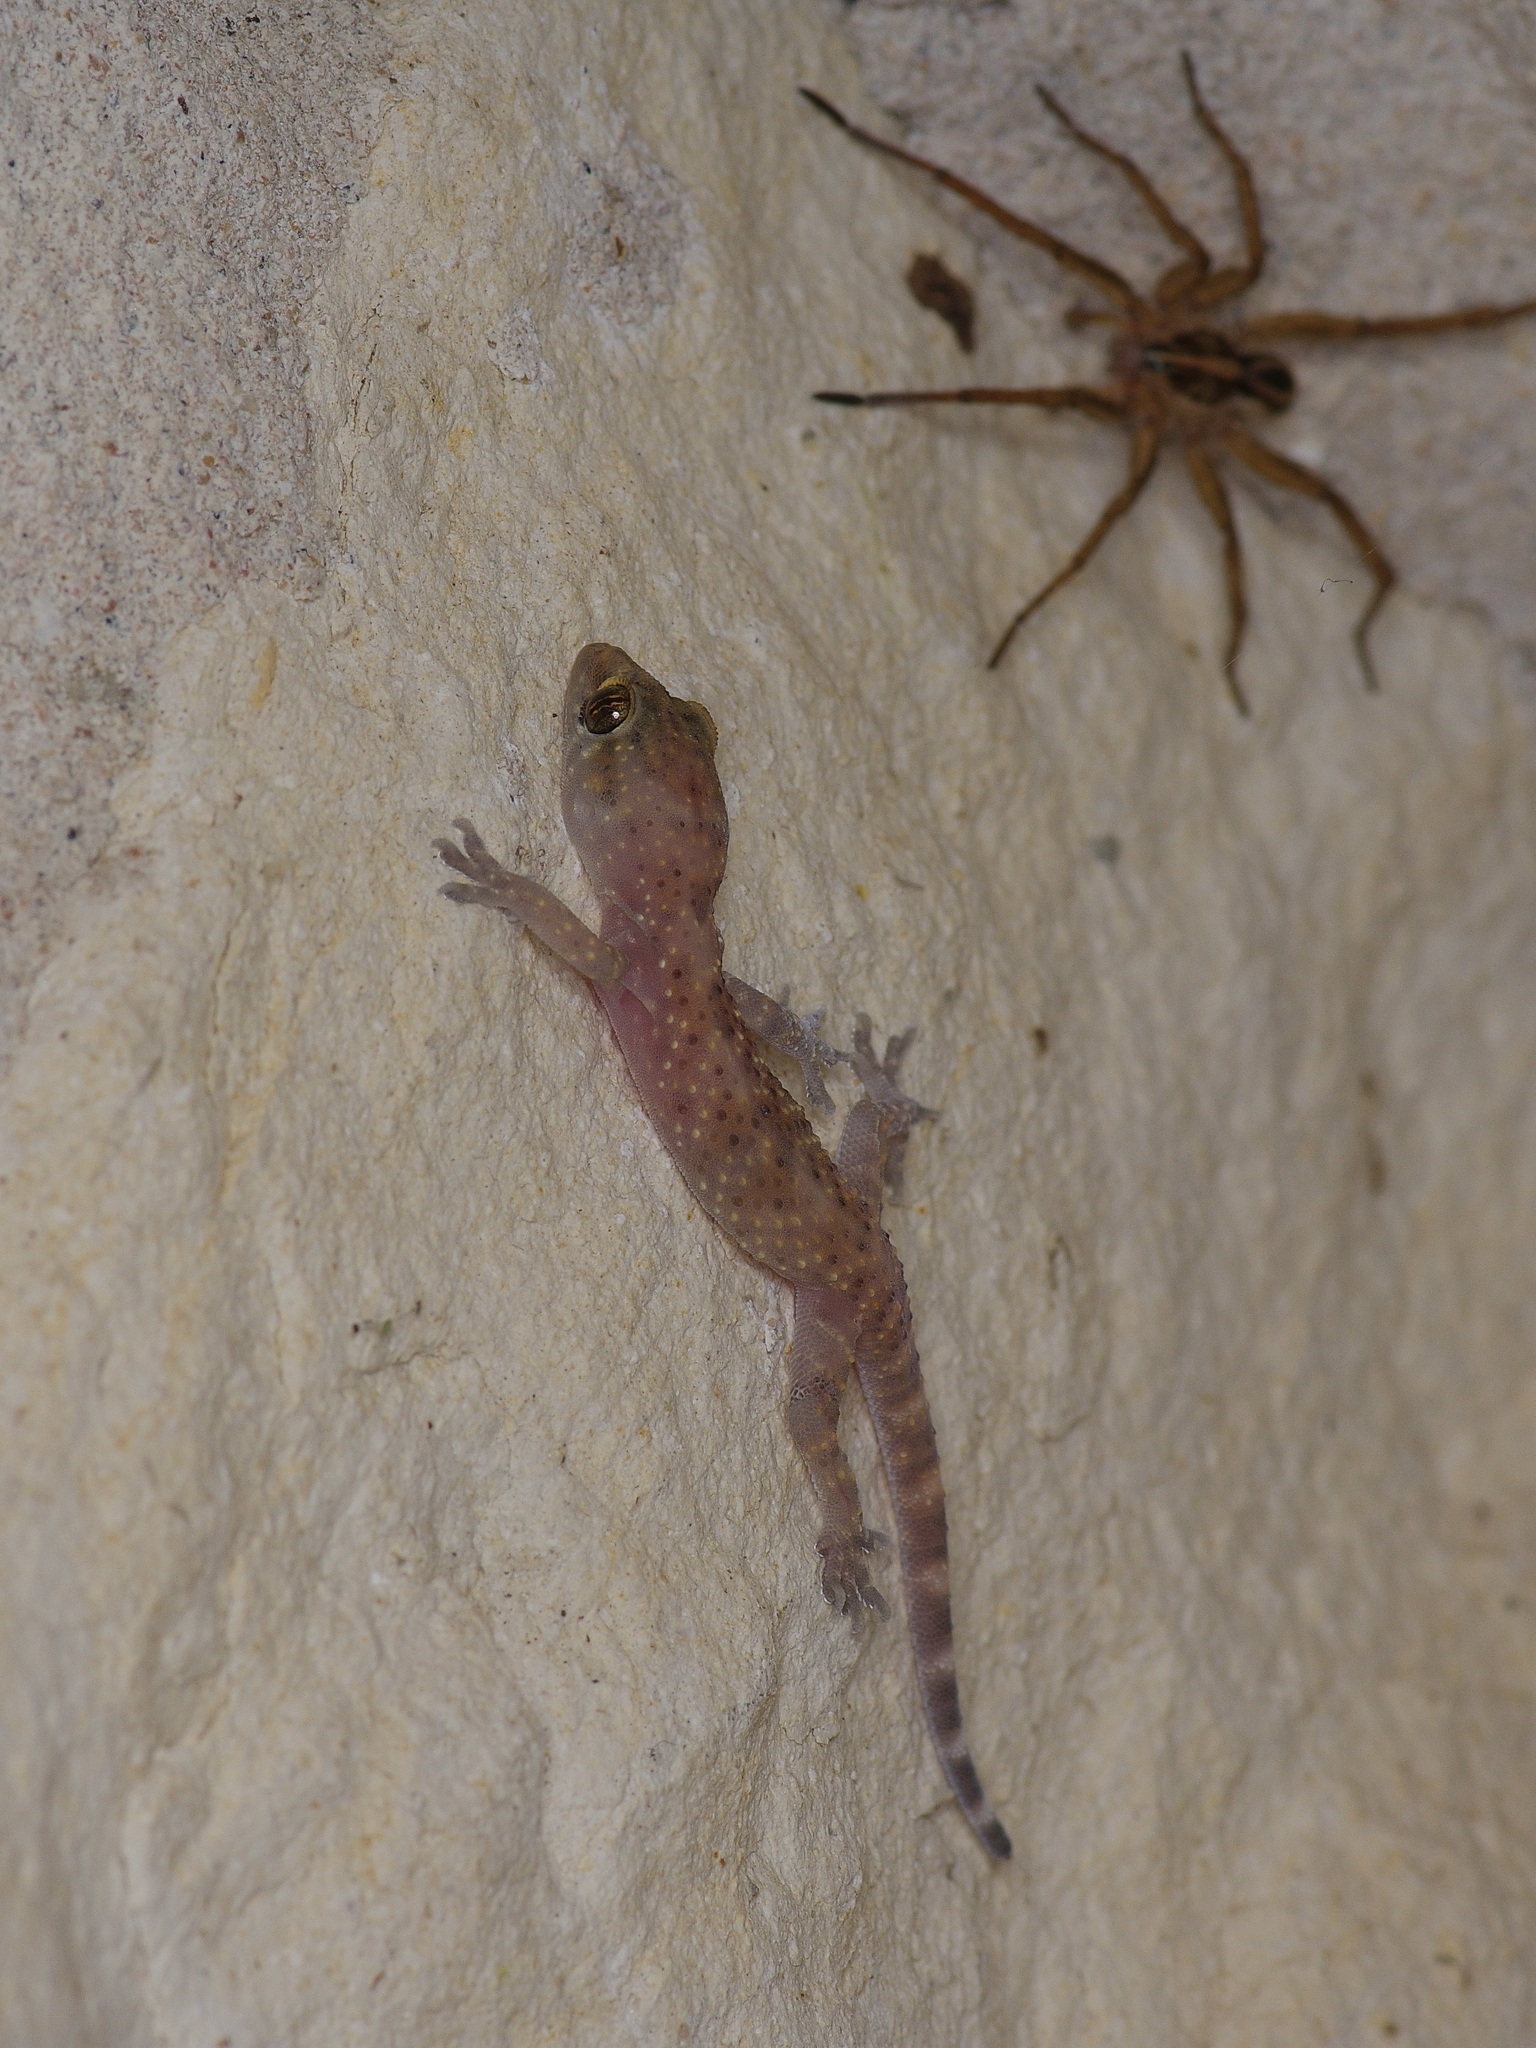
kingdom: Animalia
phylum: Chordata
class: Squamata
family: Gekkonidae
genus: Hemidactylus
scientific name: Hemidactylus turcicus
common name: Turkish gecko
